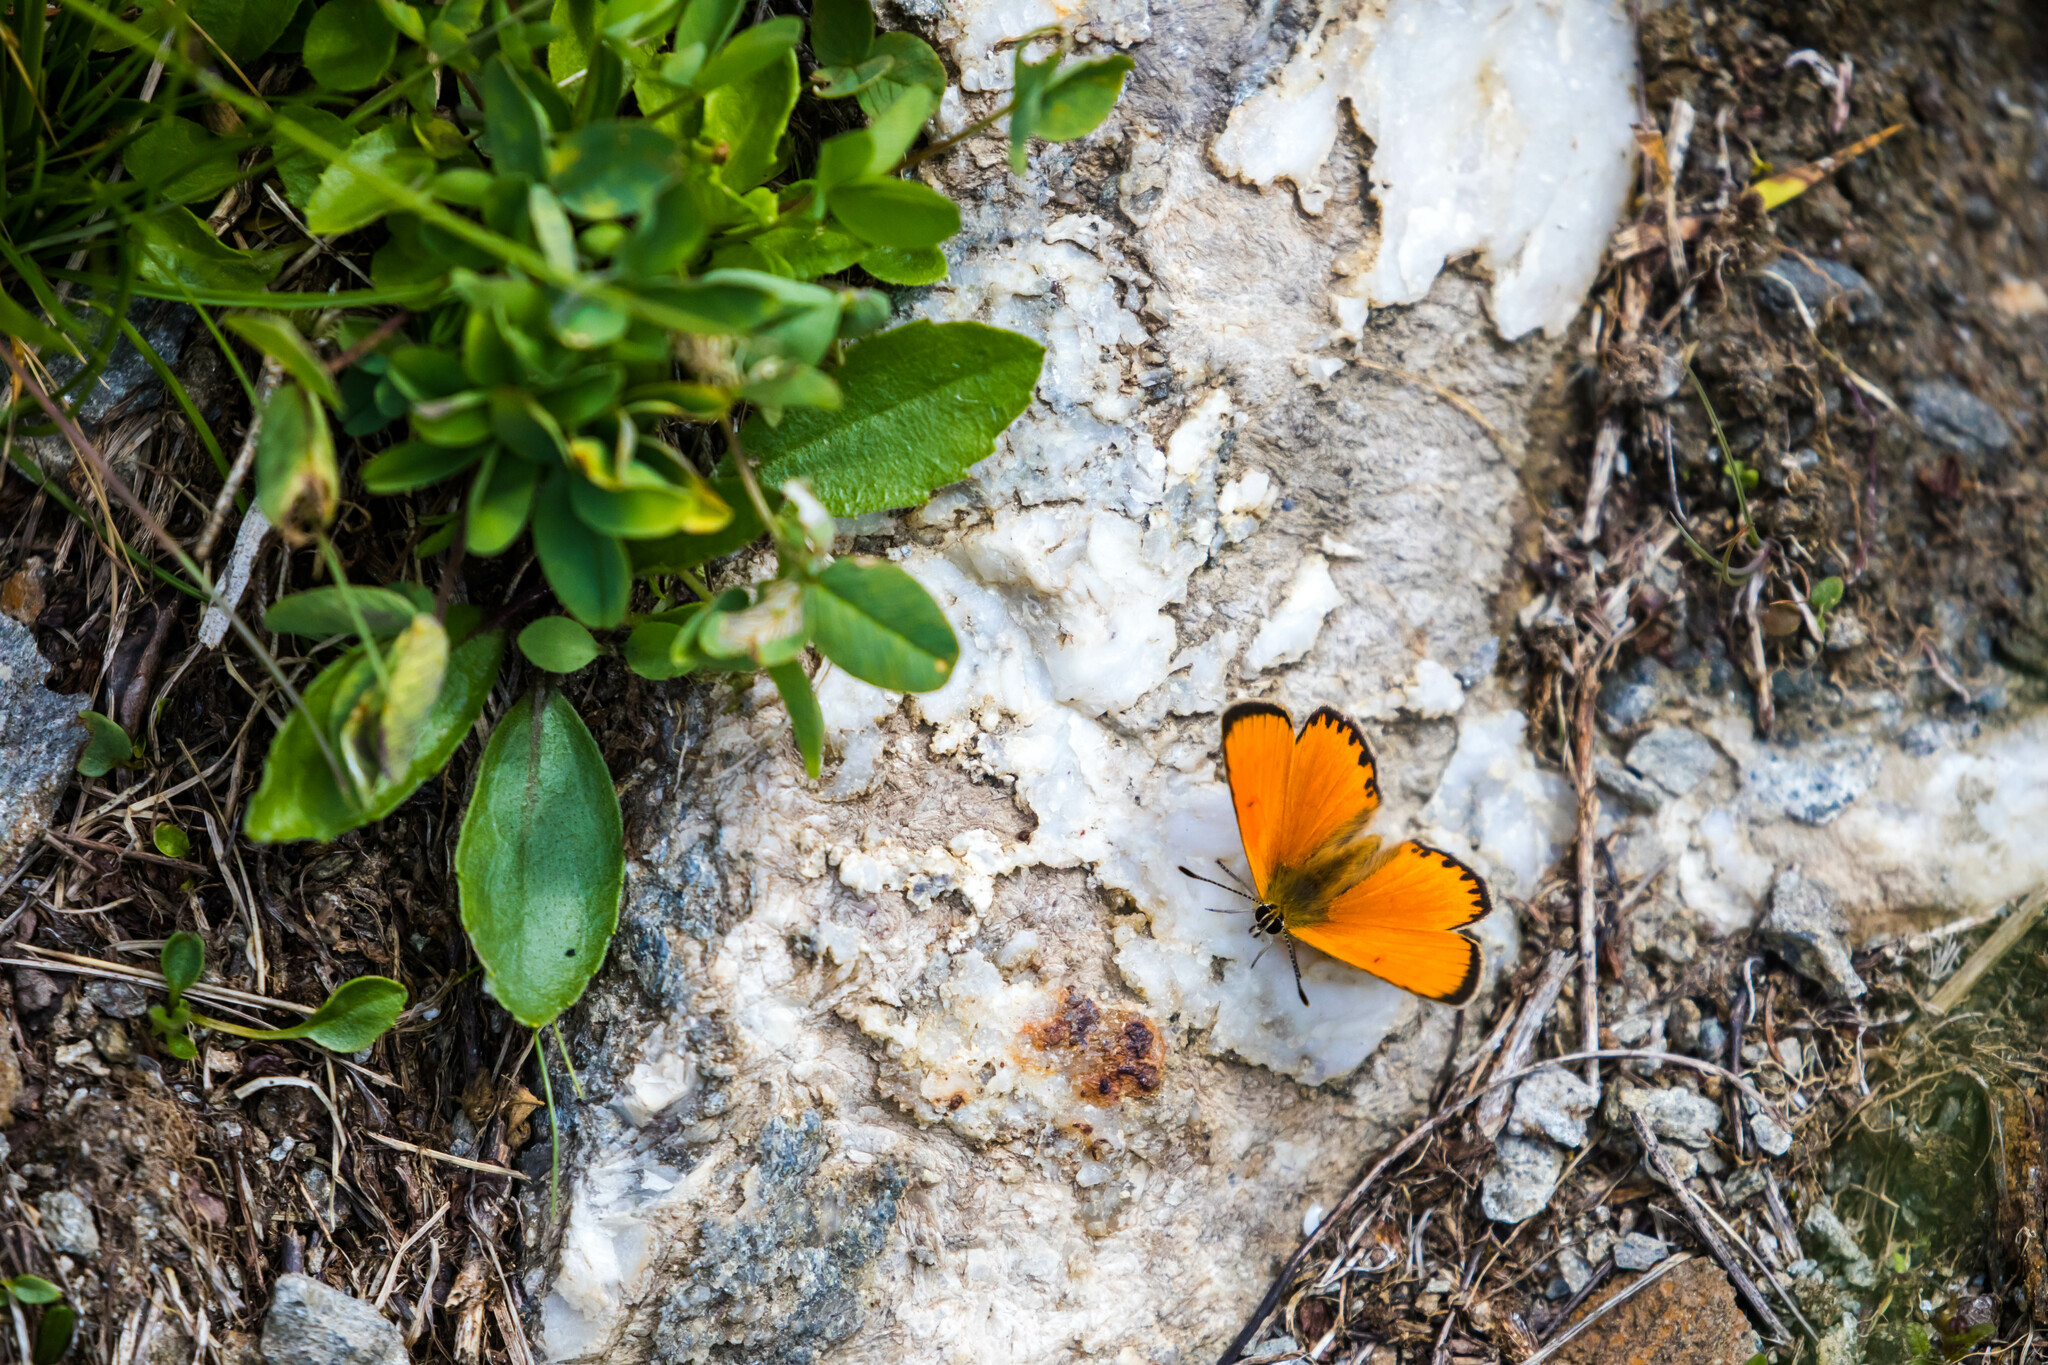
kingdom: Animalia
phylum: Arthropoda
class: Insecta
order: Lepidoptera
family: Lycaenidae
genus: Lycaena
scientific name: Lycaena virgaureae
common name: Scarce copper
